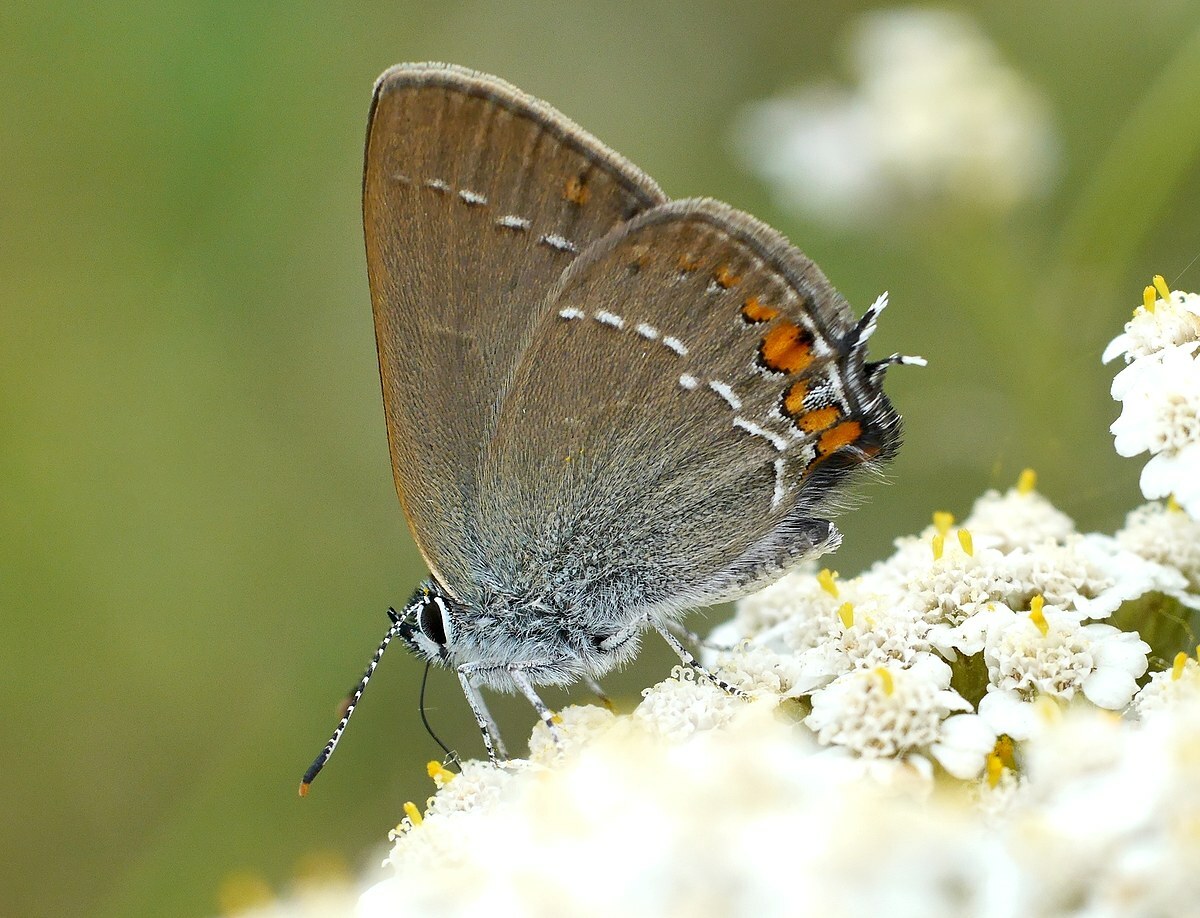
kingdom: Animalia
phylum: Arthropoda
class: Insecta
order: Lepidoptera
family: Lycaenidae
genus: Strymon
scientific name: Strymon acaciae
